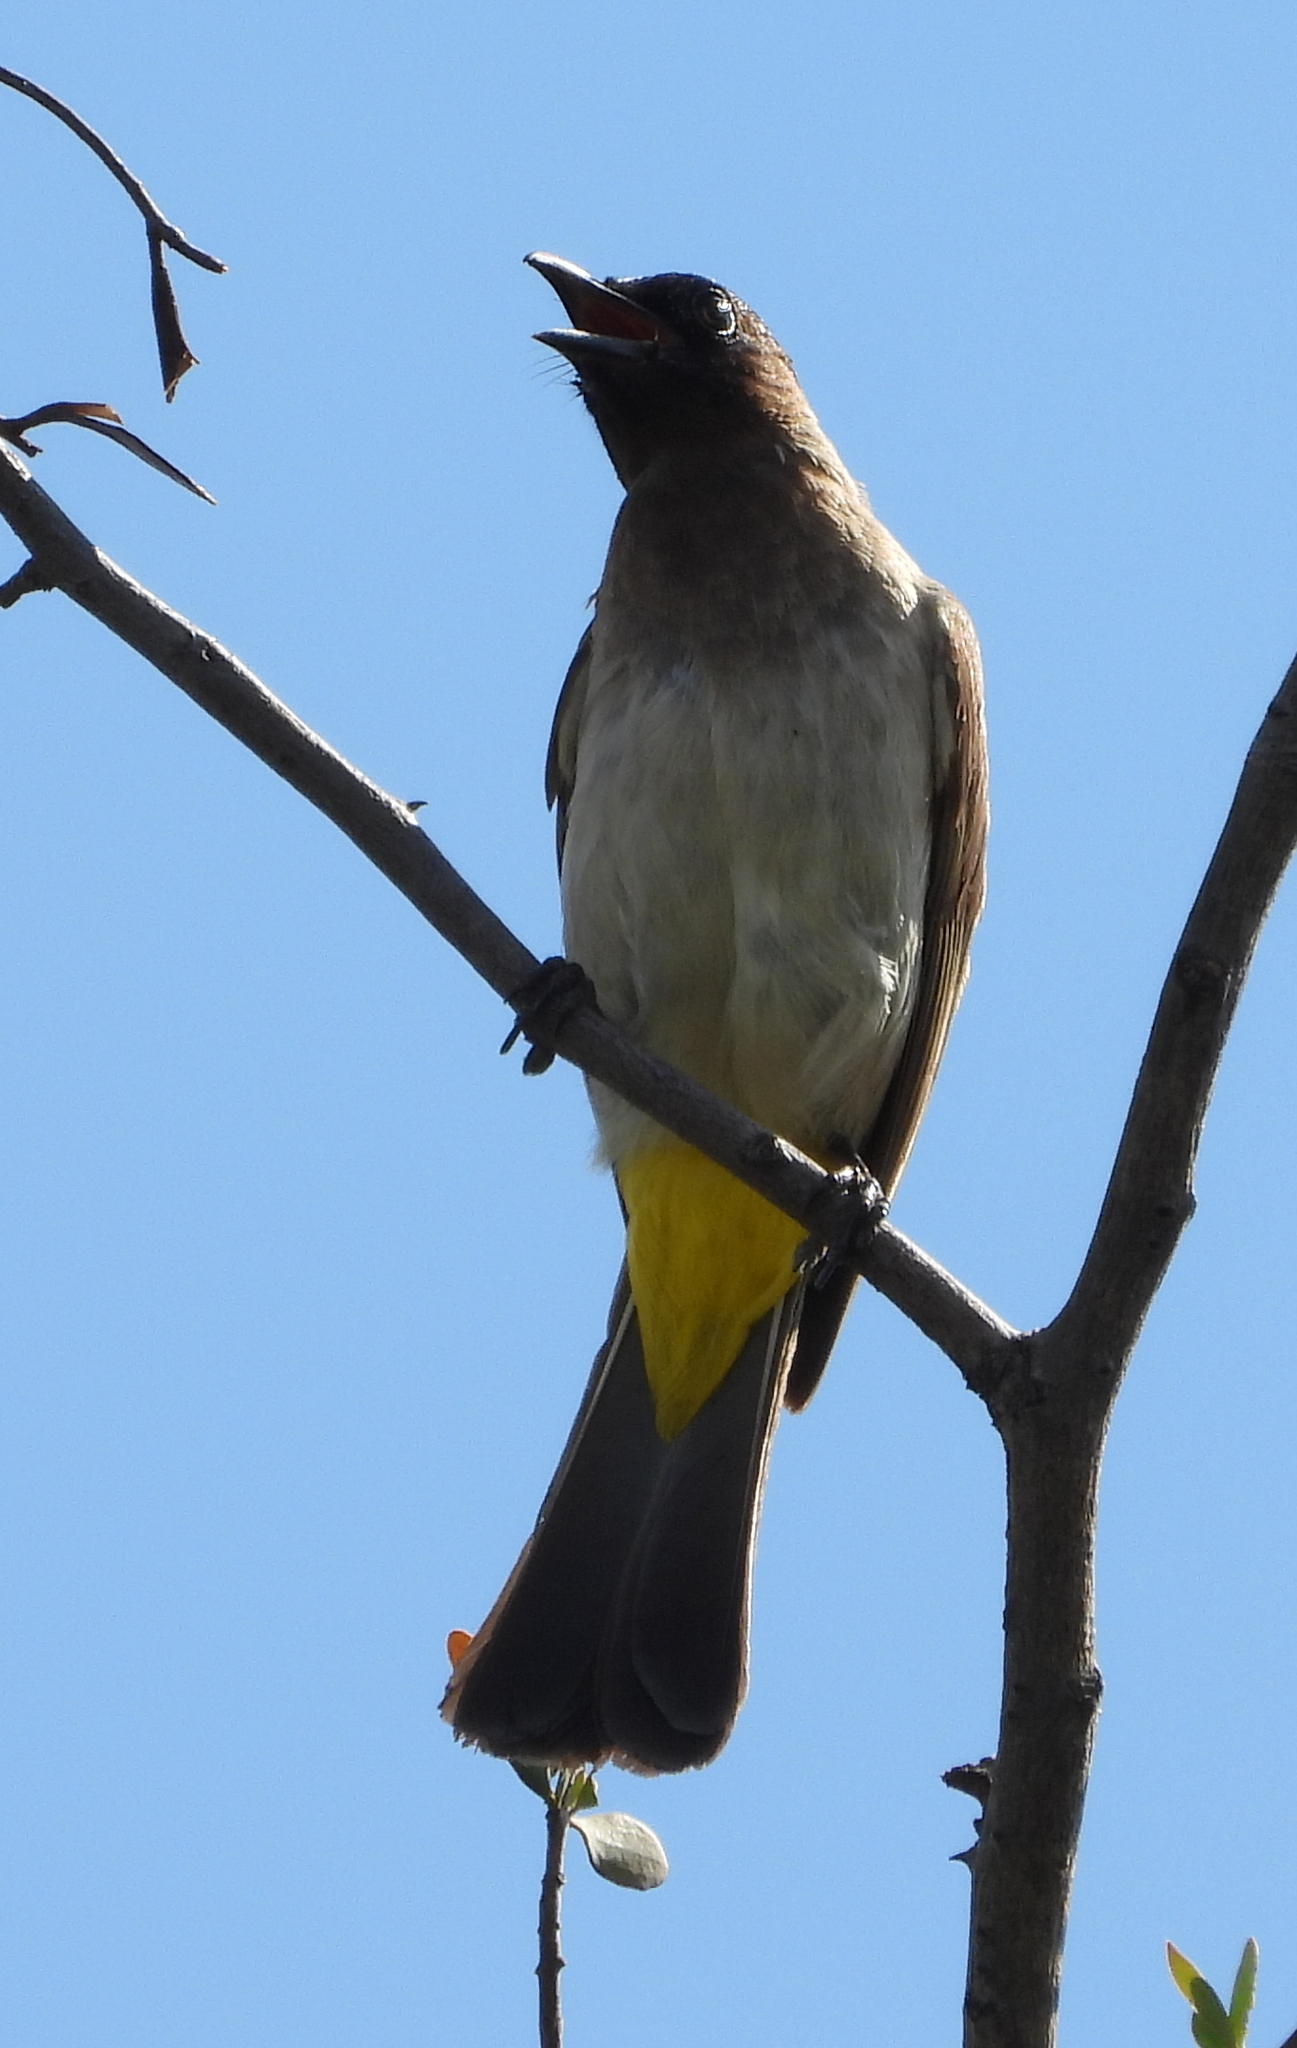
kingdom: Animalia
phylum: Chordata
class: Aves
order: Passeriformes
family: Pycnonotidae
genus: Pycnonotus
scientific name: Pycnonotus barbatus
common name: Common bulbul
